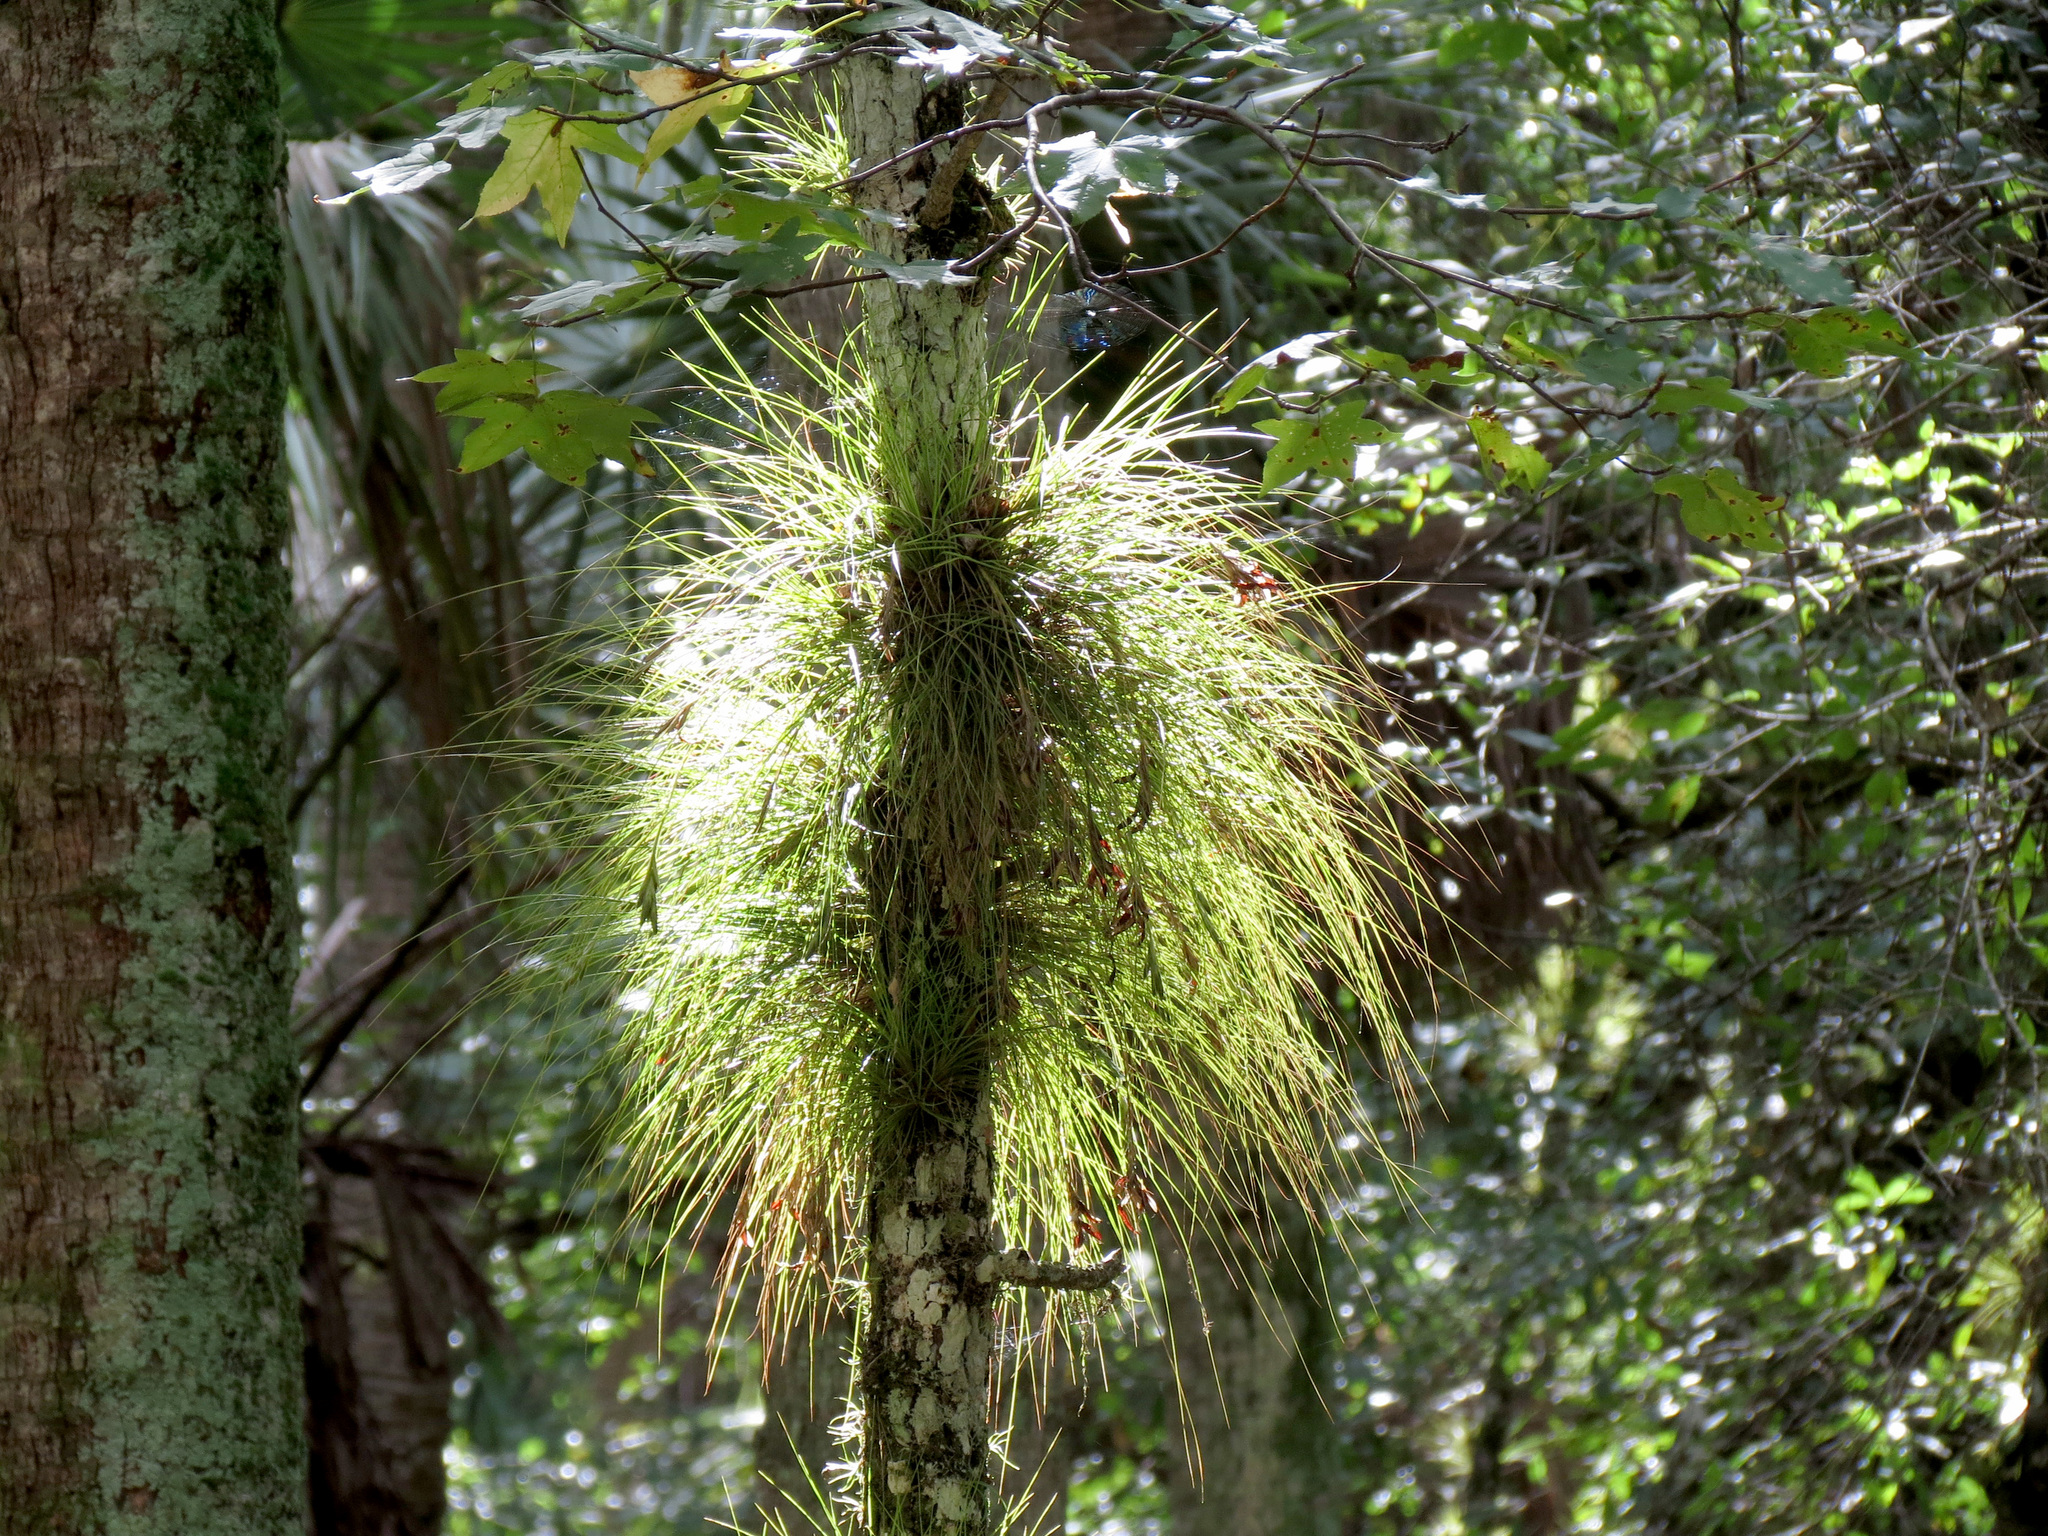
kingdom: Plantae
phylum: Tracheophyta
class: Liliopsida
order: Poales
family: Bromeliaceae
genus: Tillandsia
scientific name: Tillandsia setacea
